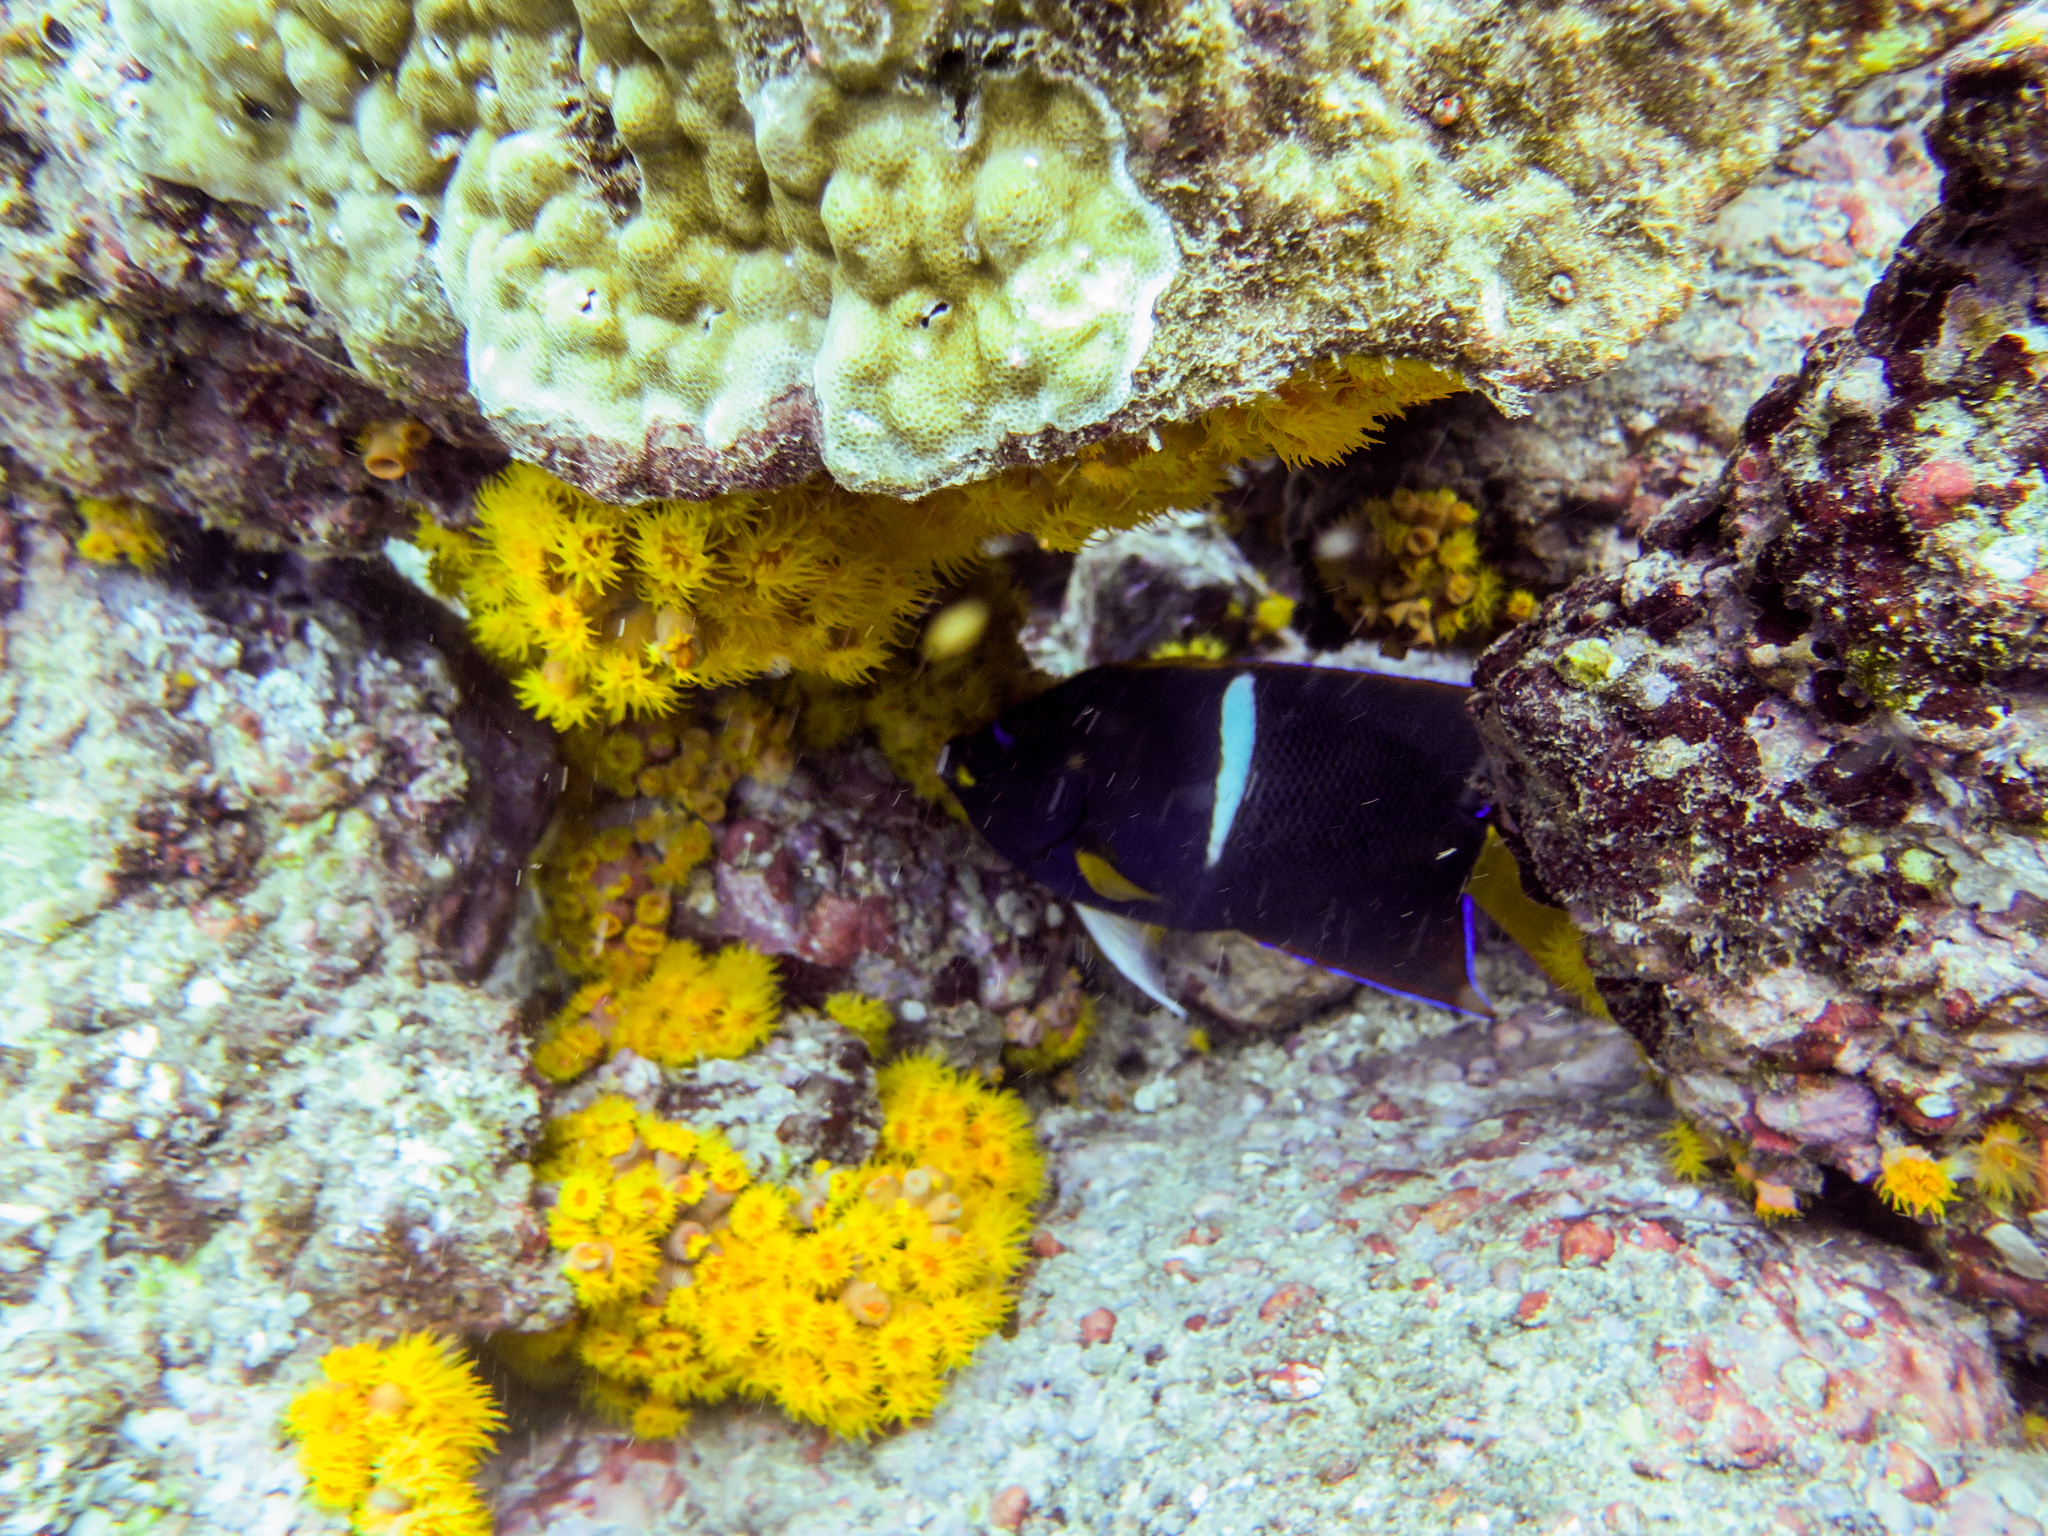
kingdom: Animalia
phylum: Chordata
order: Perciformes
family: Pomacanthidae
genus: Holacanthus
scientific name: Holacanthus passer
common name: King angelfish
